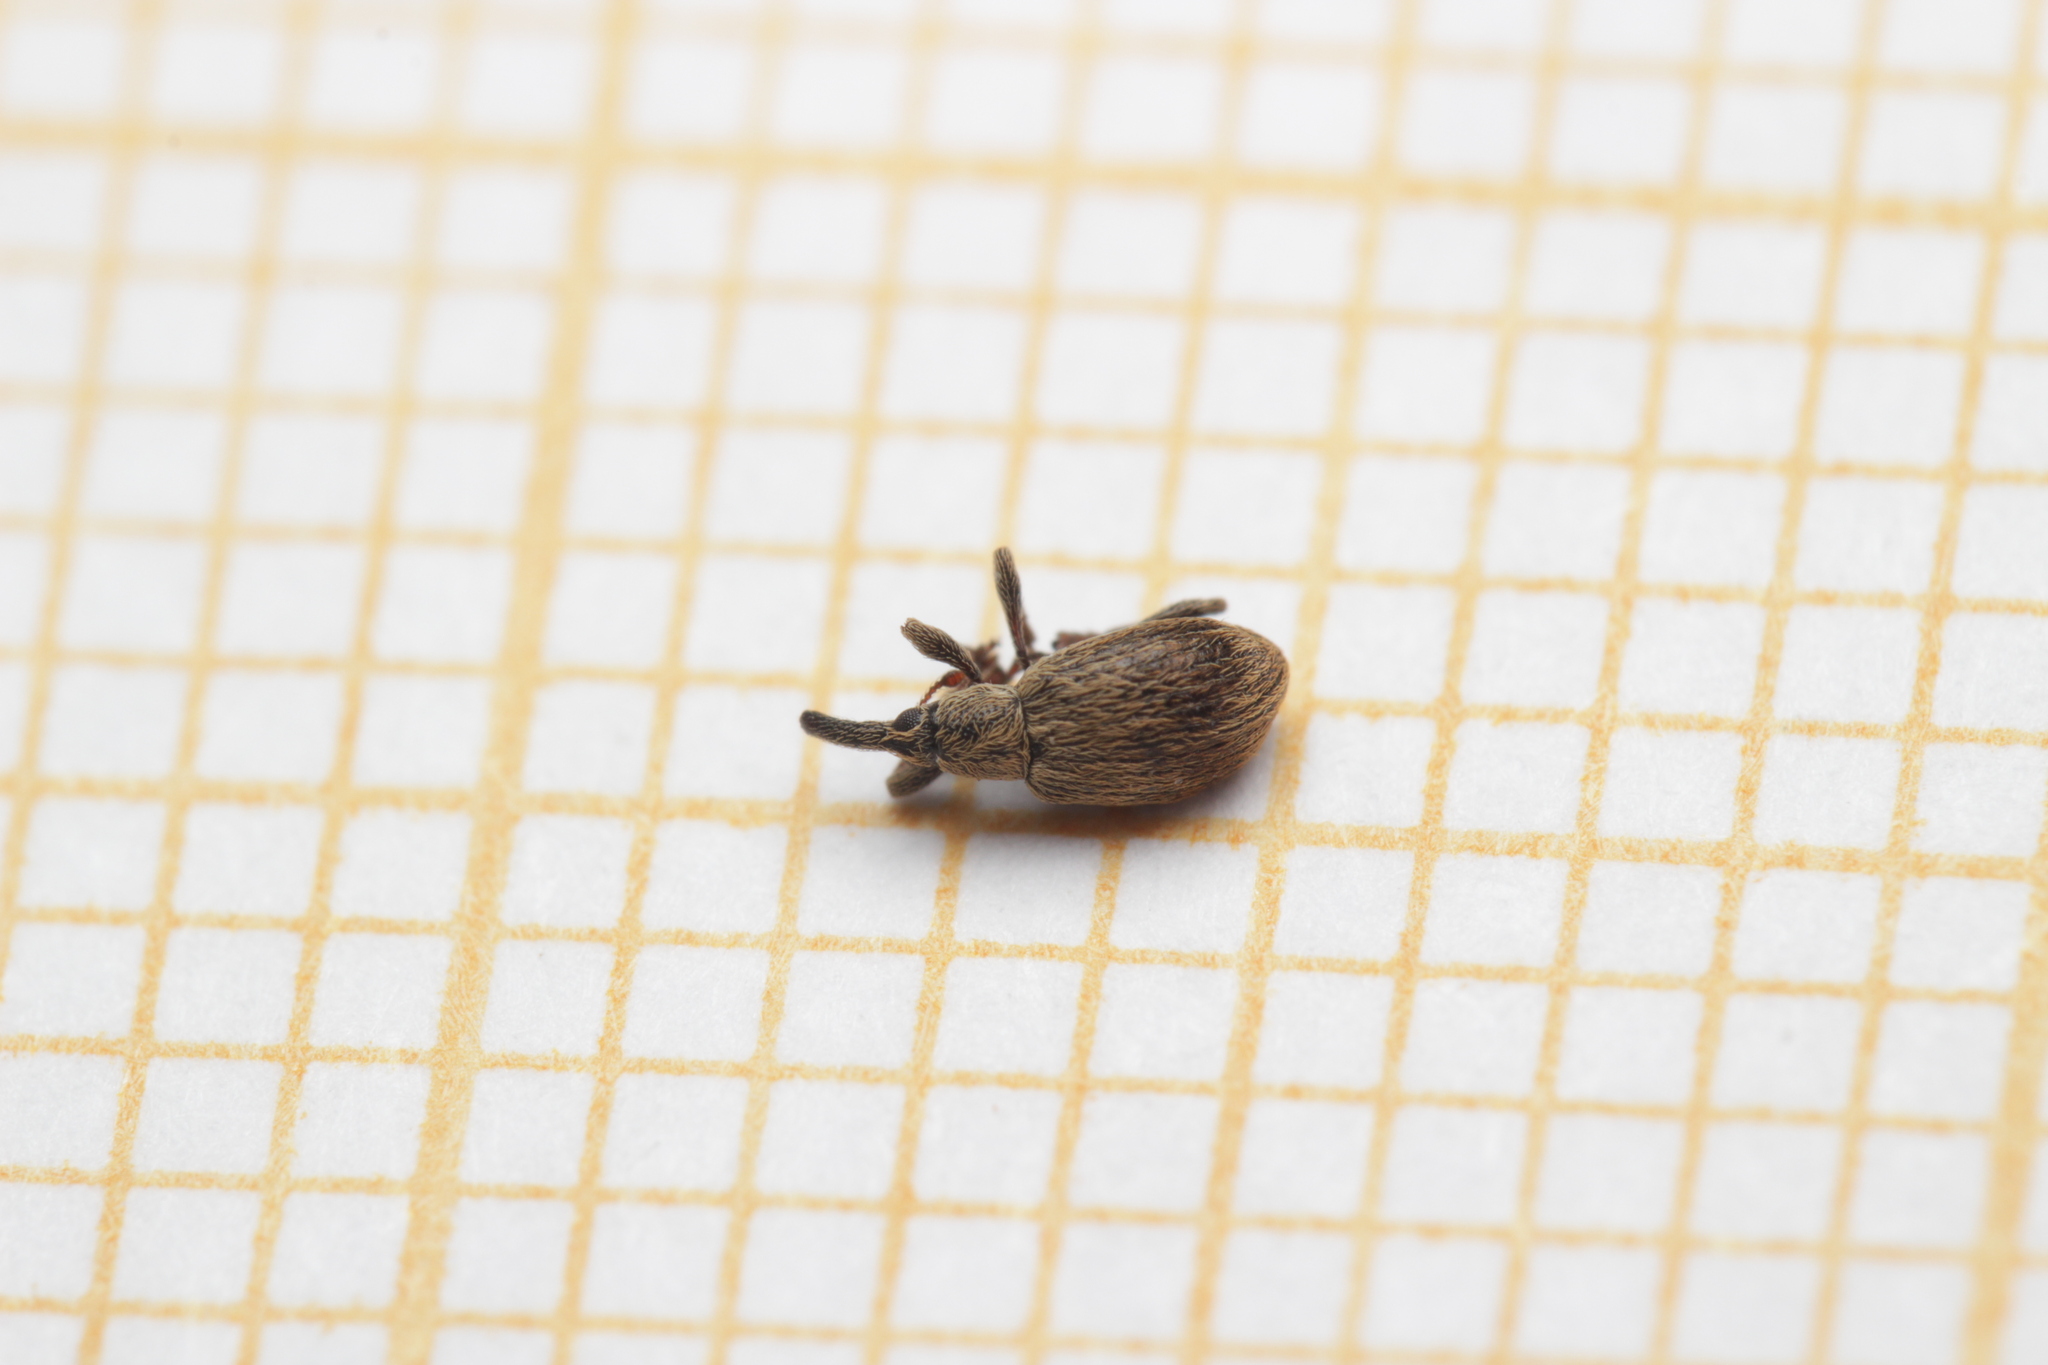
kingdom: Animalia
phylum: Arthropoda
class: Insecta
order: Coleoptera
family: Apionidae
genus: Trichopterapion
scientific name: Trichopterapion holosericeum
